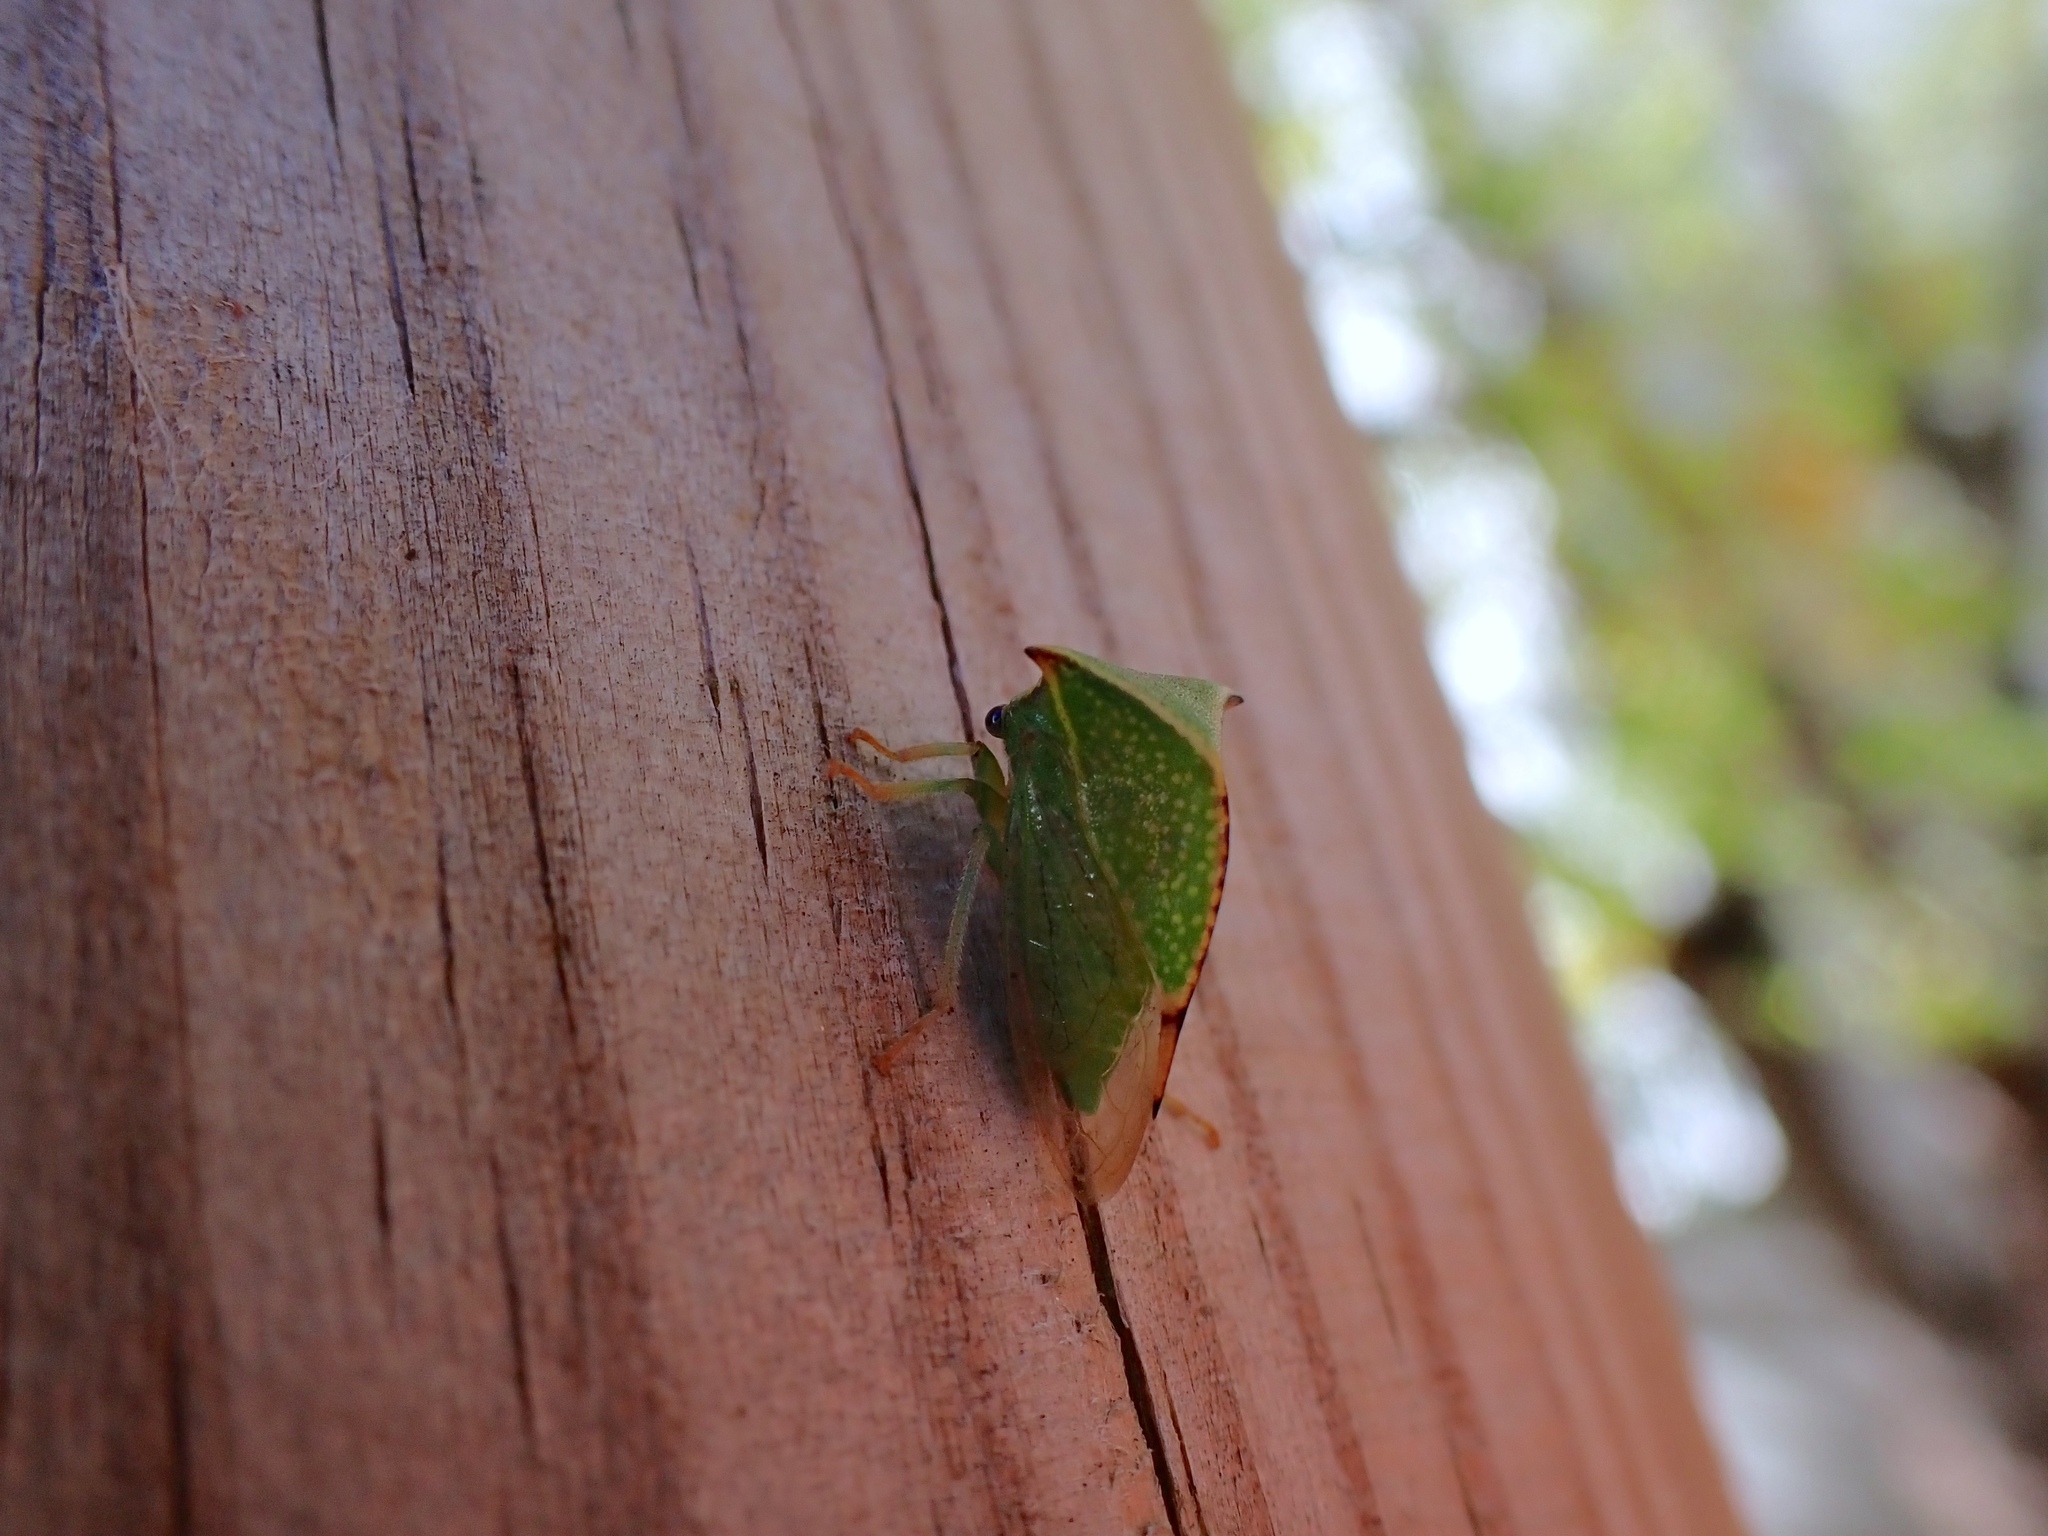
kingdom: Animalia
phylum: Arthropoda
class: Insecta
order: Hemiptera
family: Membracidae
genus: Stictocephala
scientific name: Stictocephala bisonia
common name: American buffalo treehopper
